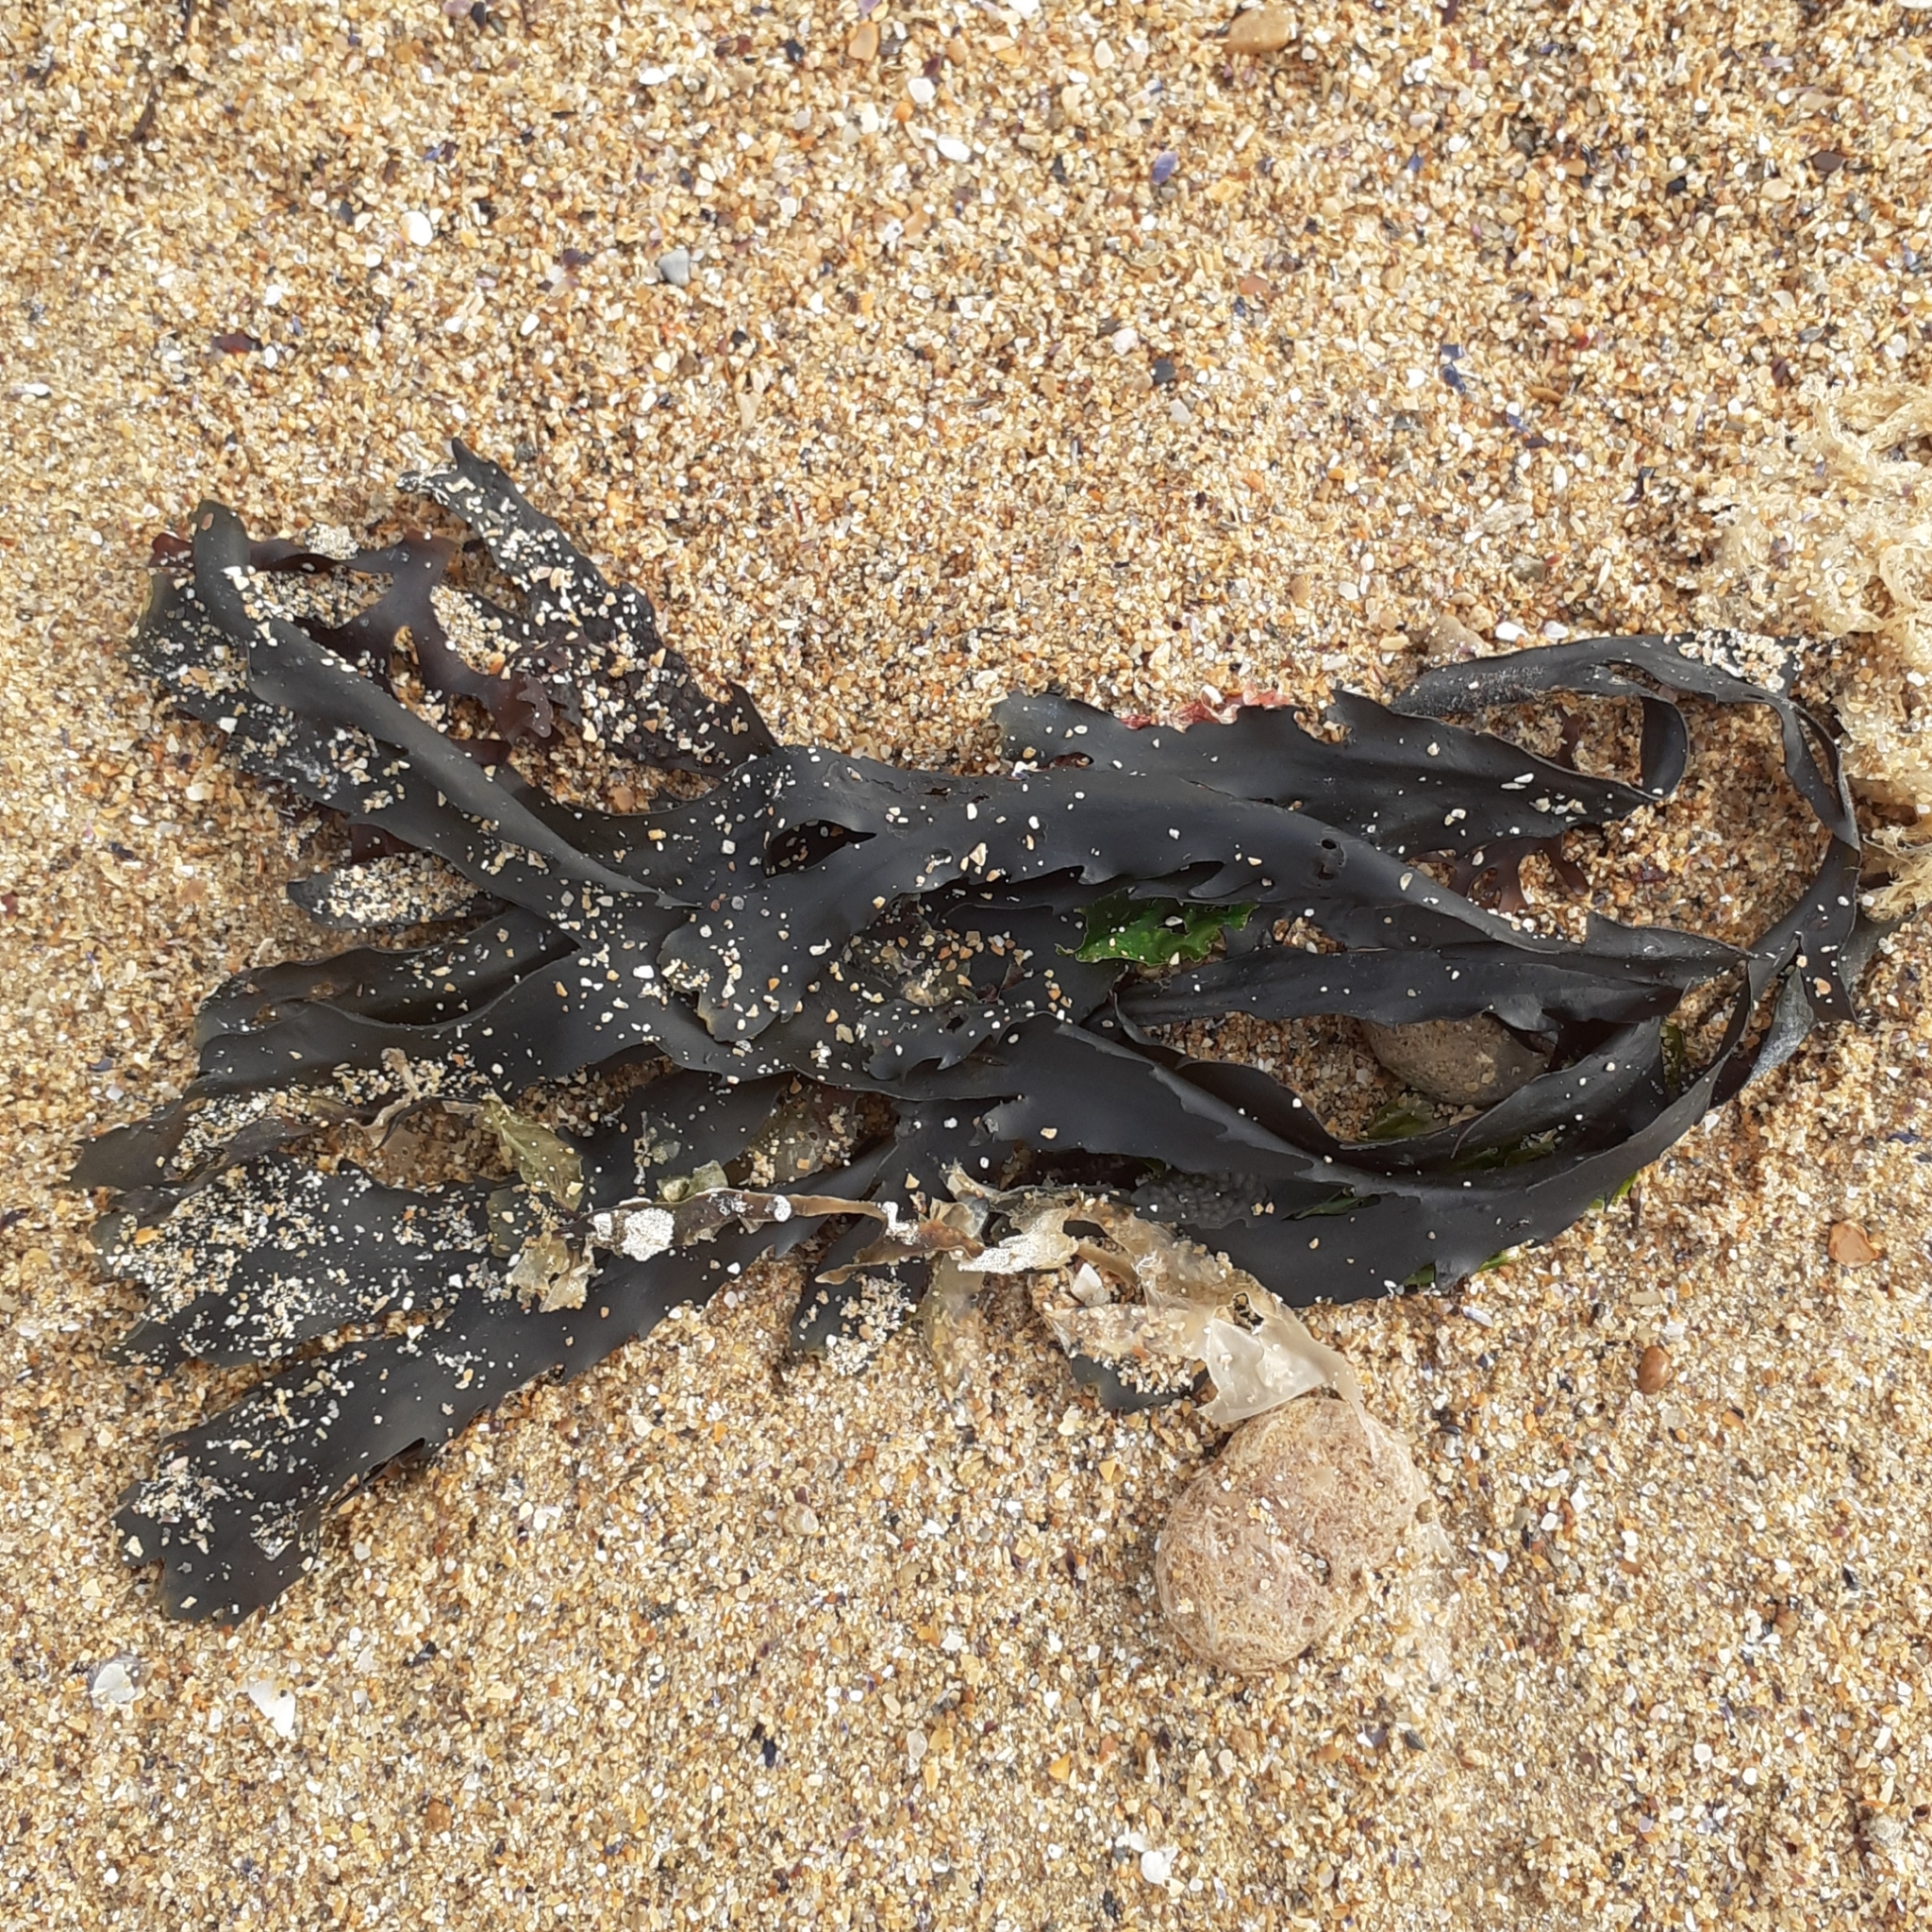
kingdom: Chromista
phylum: Ochrophyta
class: Phaeophyceae
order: Fucales
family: Fucaceae
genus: Fucus
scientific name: Fucus serratus
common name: Toothed wrack
